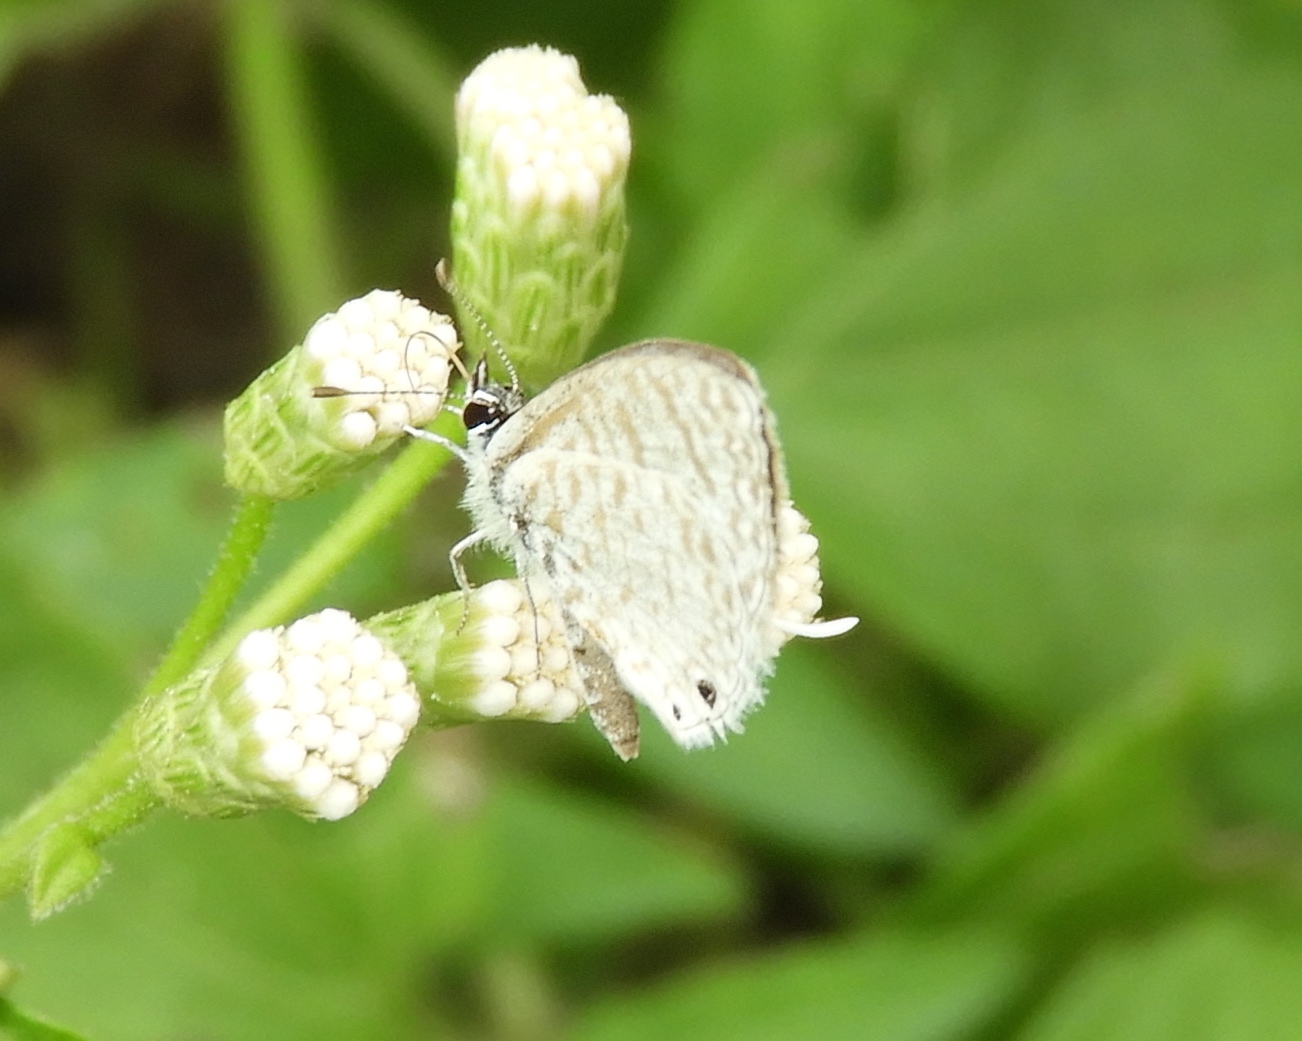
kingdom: Animalia
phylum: Arthropoda
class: Insecta
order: Lepidoptera
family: Lycaenidae
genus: Leptotes
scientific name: Leptotes
